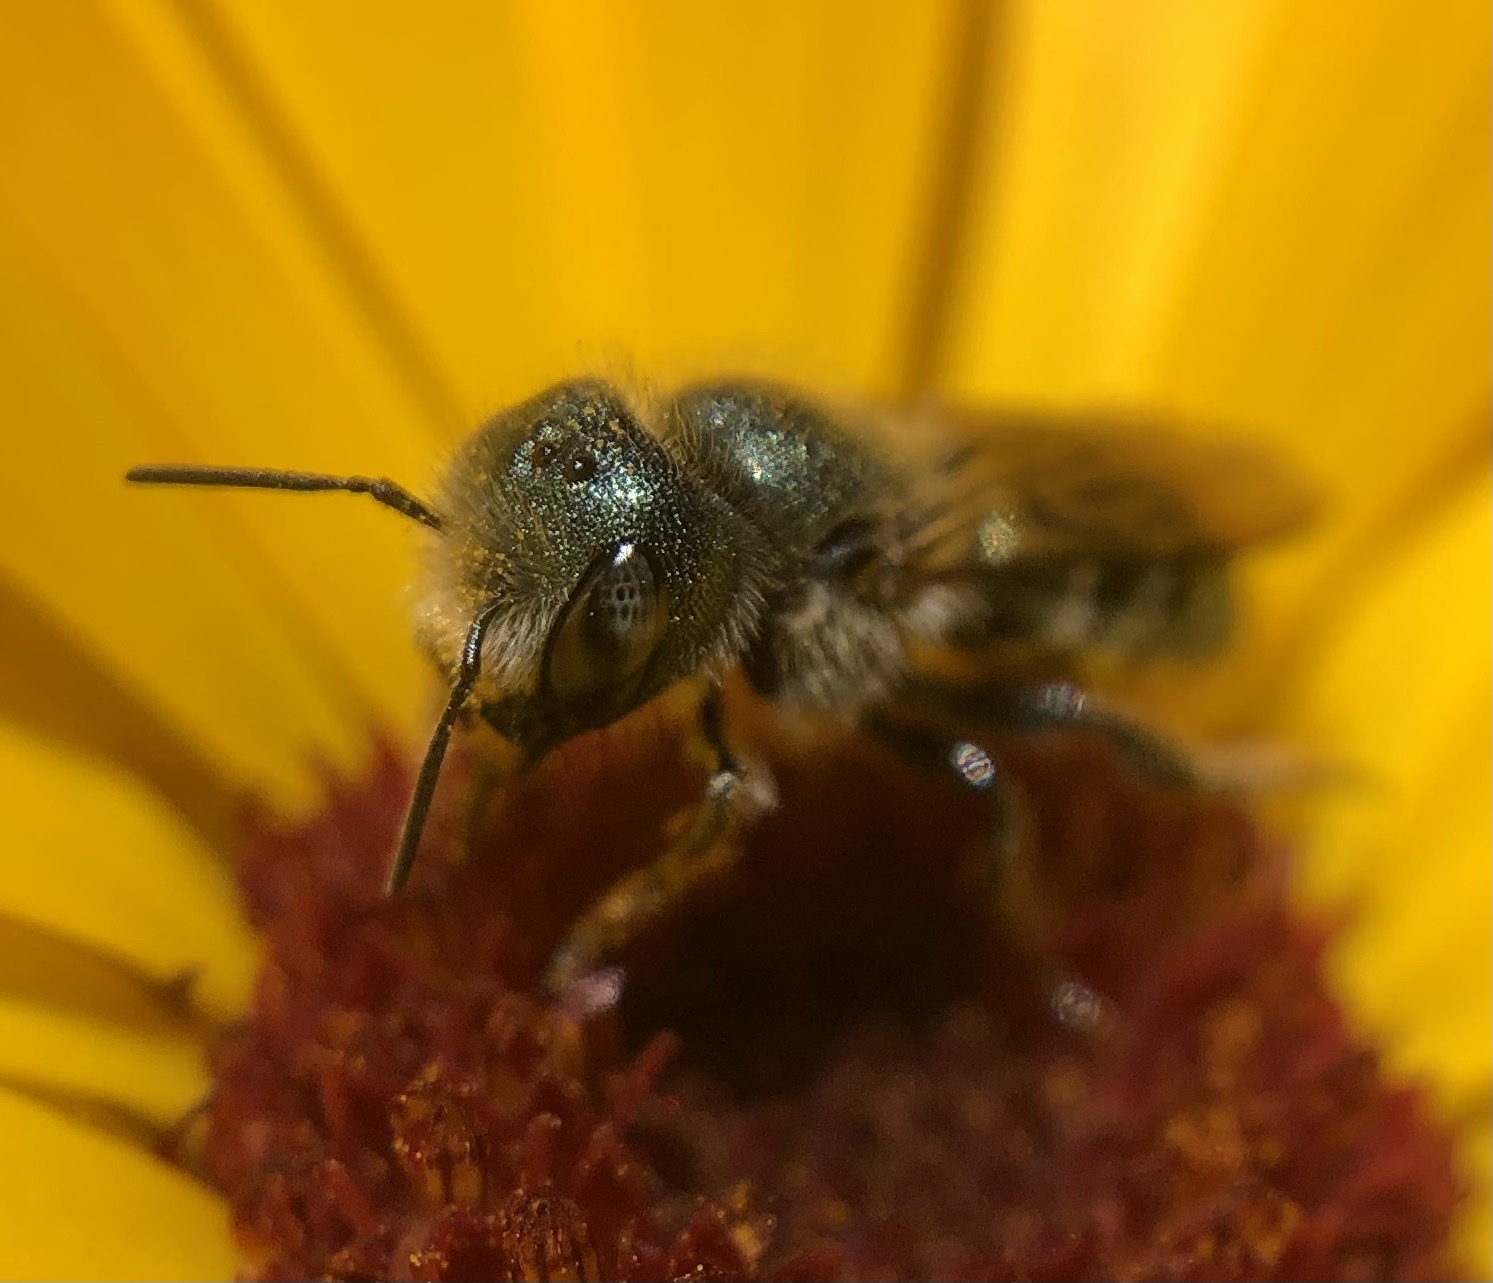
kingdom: Animalia
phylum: Arthropoda
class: Insecta
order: Hymenoptera
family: Megachilidae
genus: Osmia
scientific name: Osmia georgica
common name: Georgia mason
